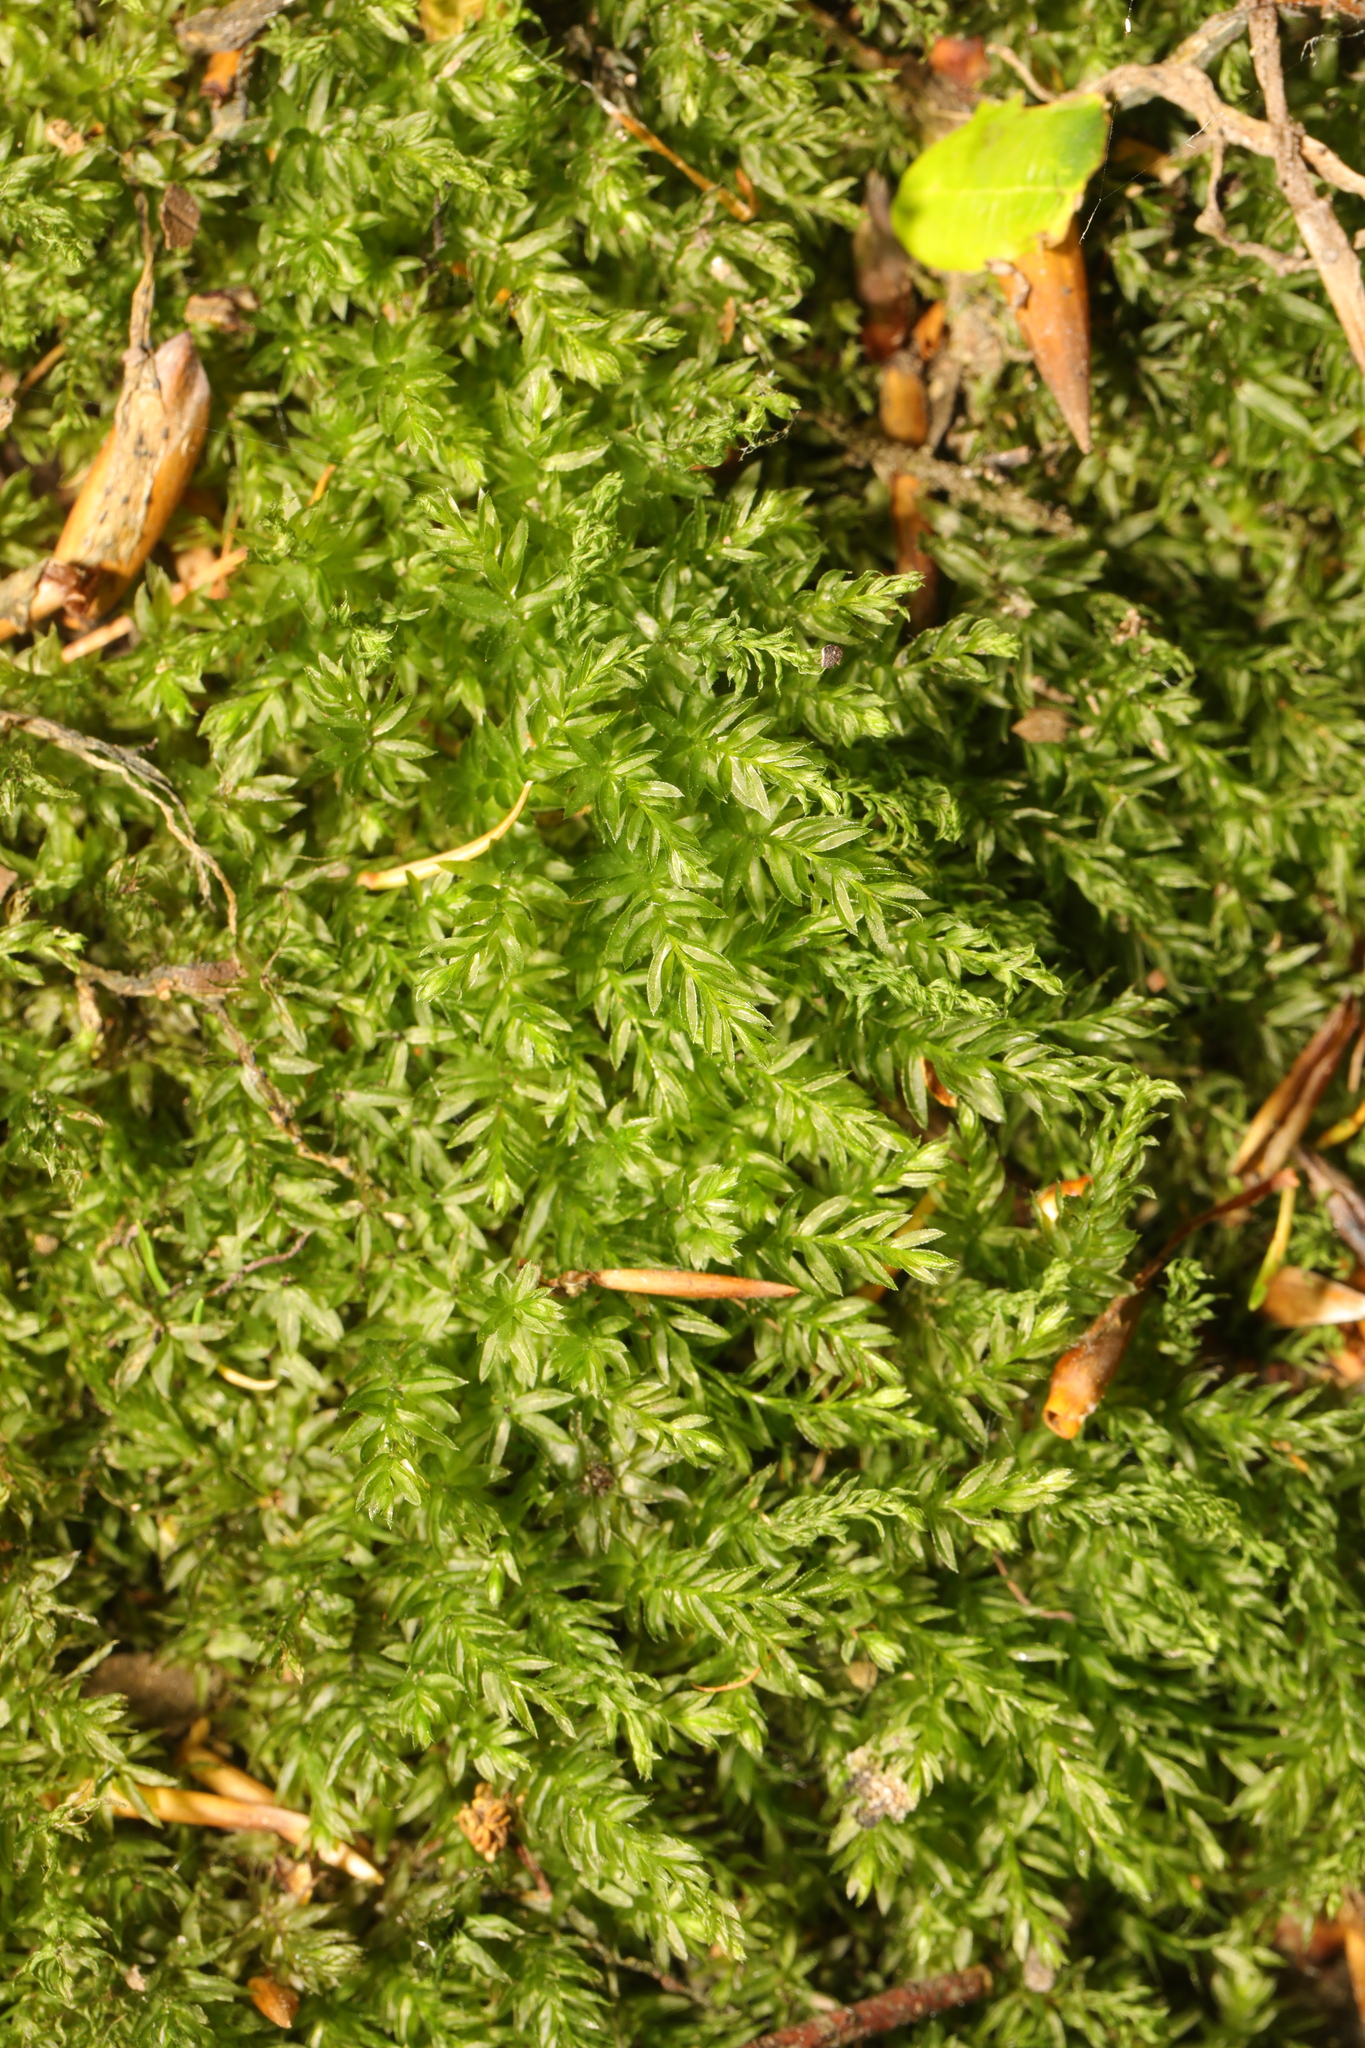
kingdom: Plantae
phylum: Bryophyta
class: Bryopsida
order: Bryales
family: Mniaceae
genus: Mnium
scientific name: Mnium hornum
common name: Swan's-neck leafy moss
